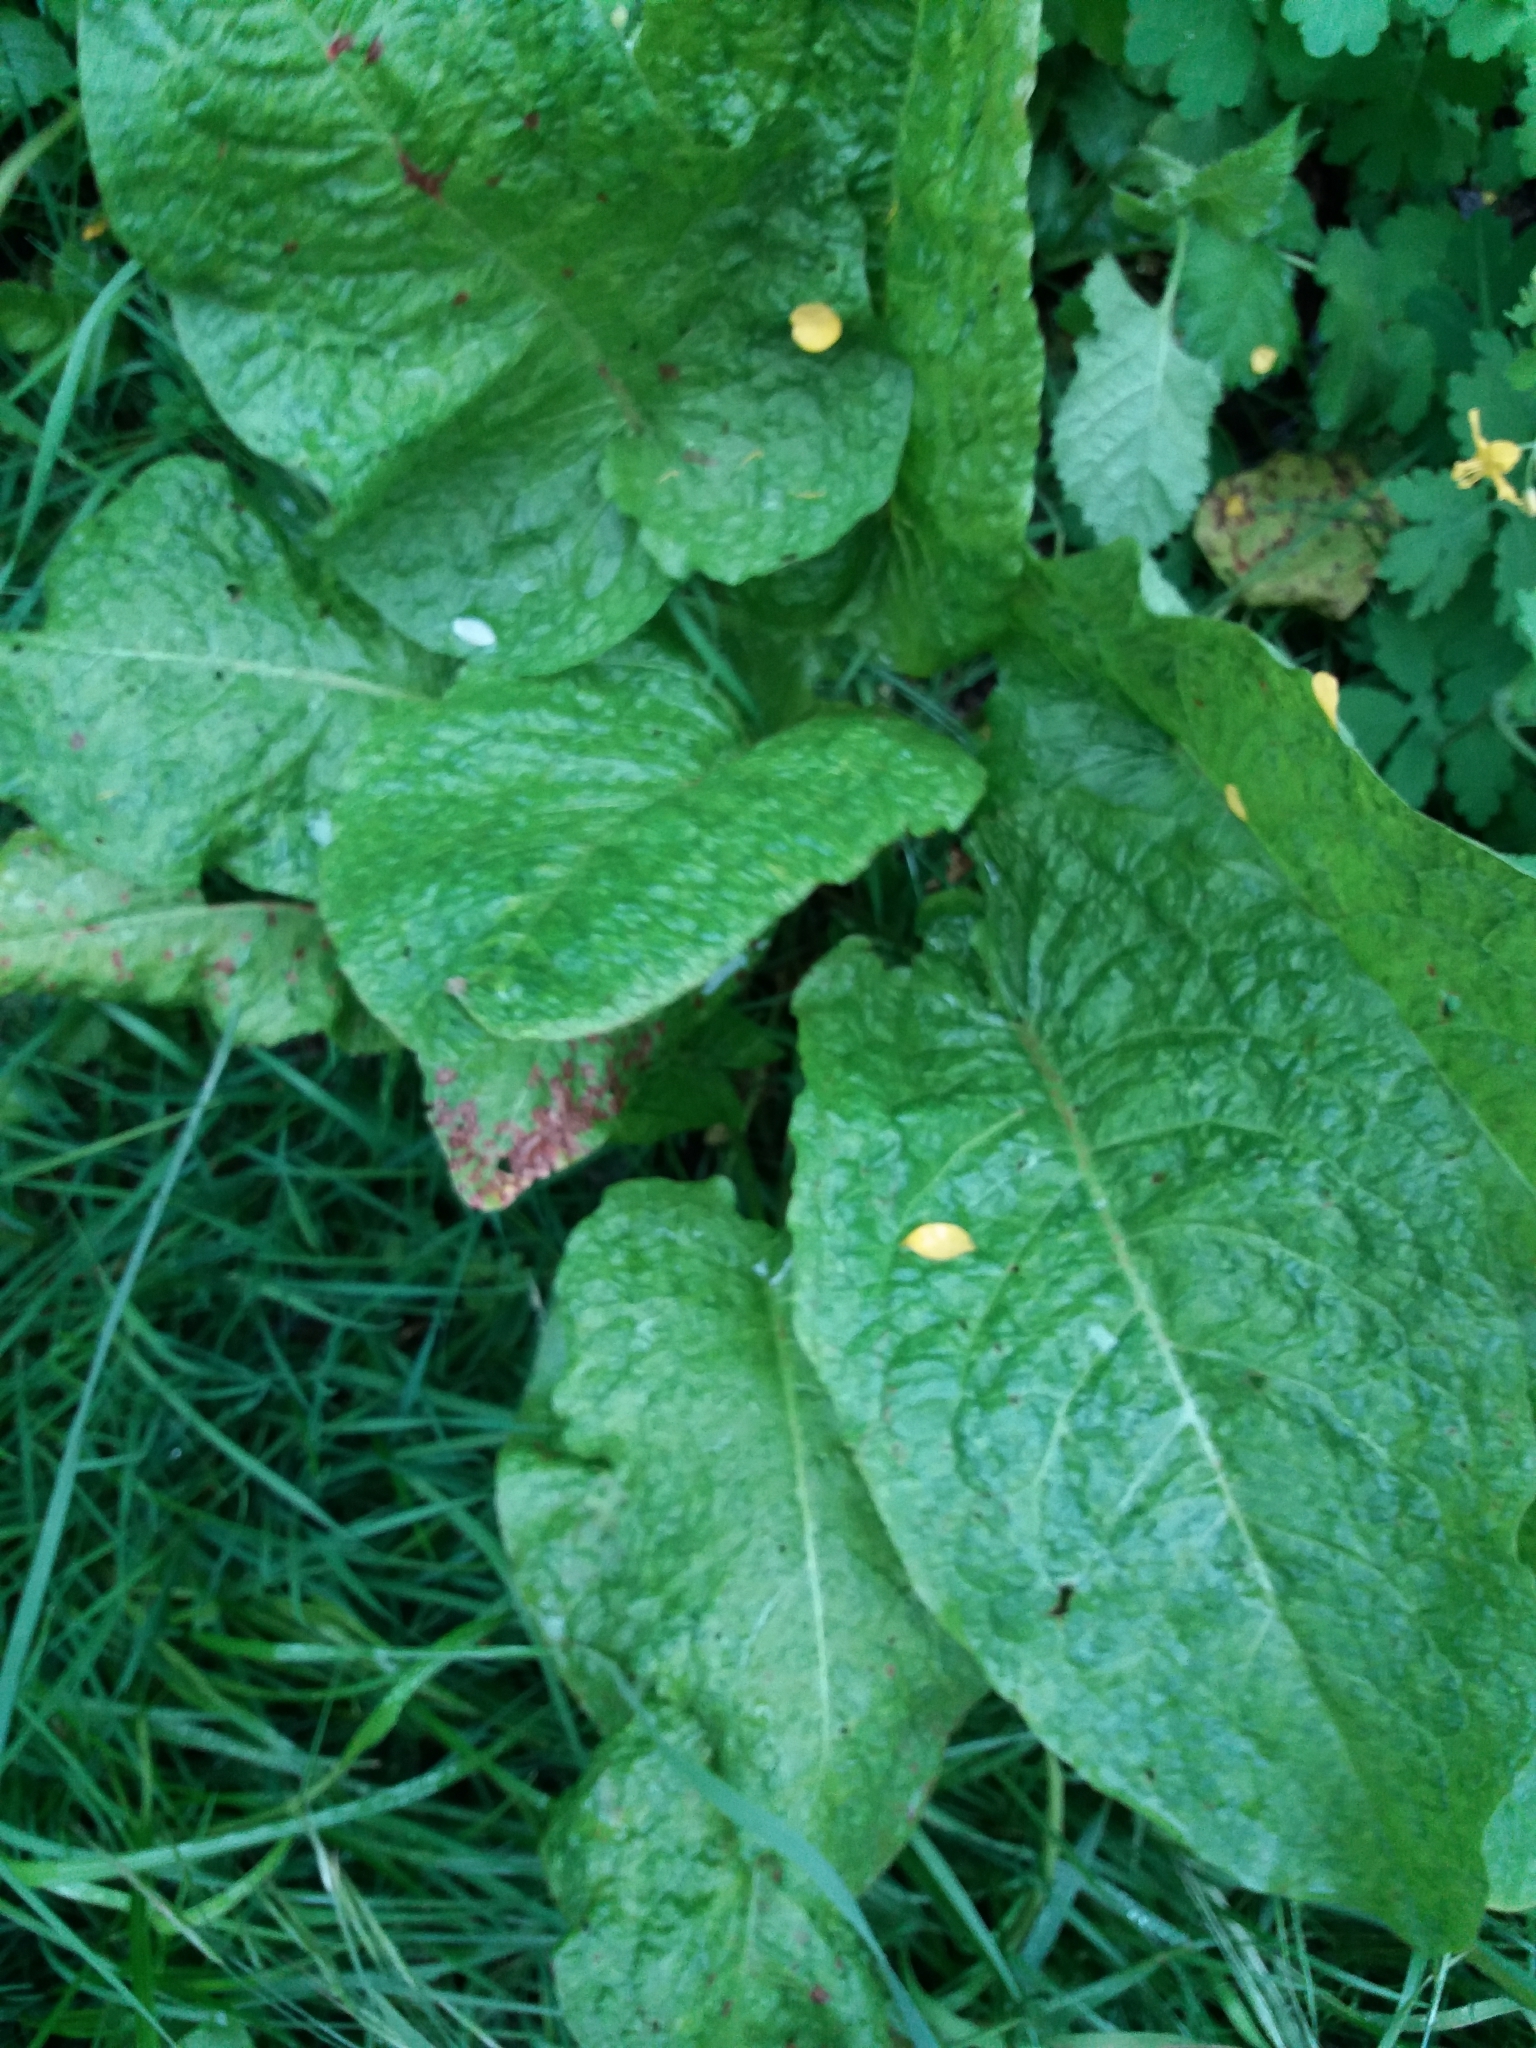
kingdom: Plantae
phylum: Tracheophyta
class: Magnoliopsida
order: Caryophyllales
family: Polygonaceae
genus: Rumex
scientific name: Rumex obtusifolius
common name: Bitter dock
